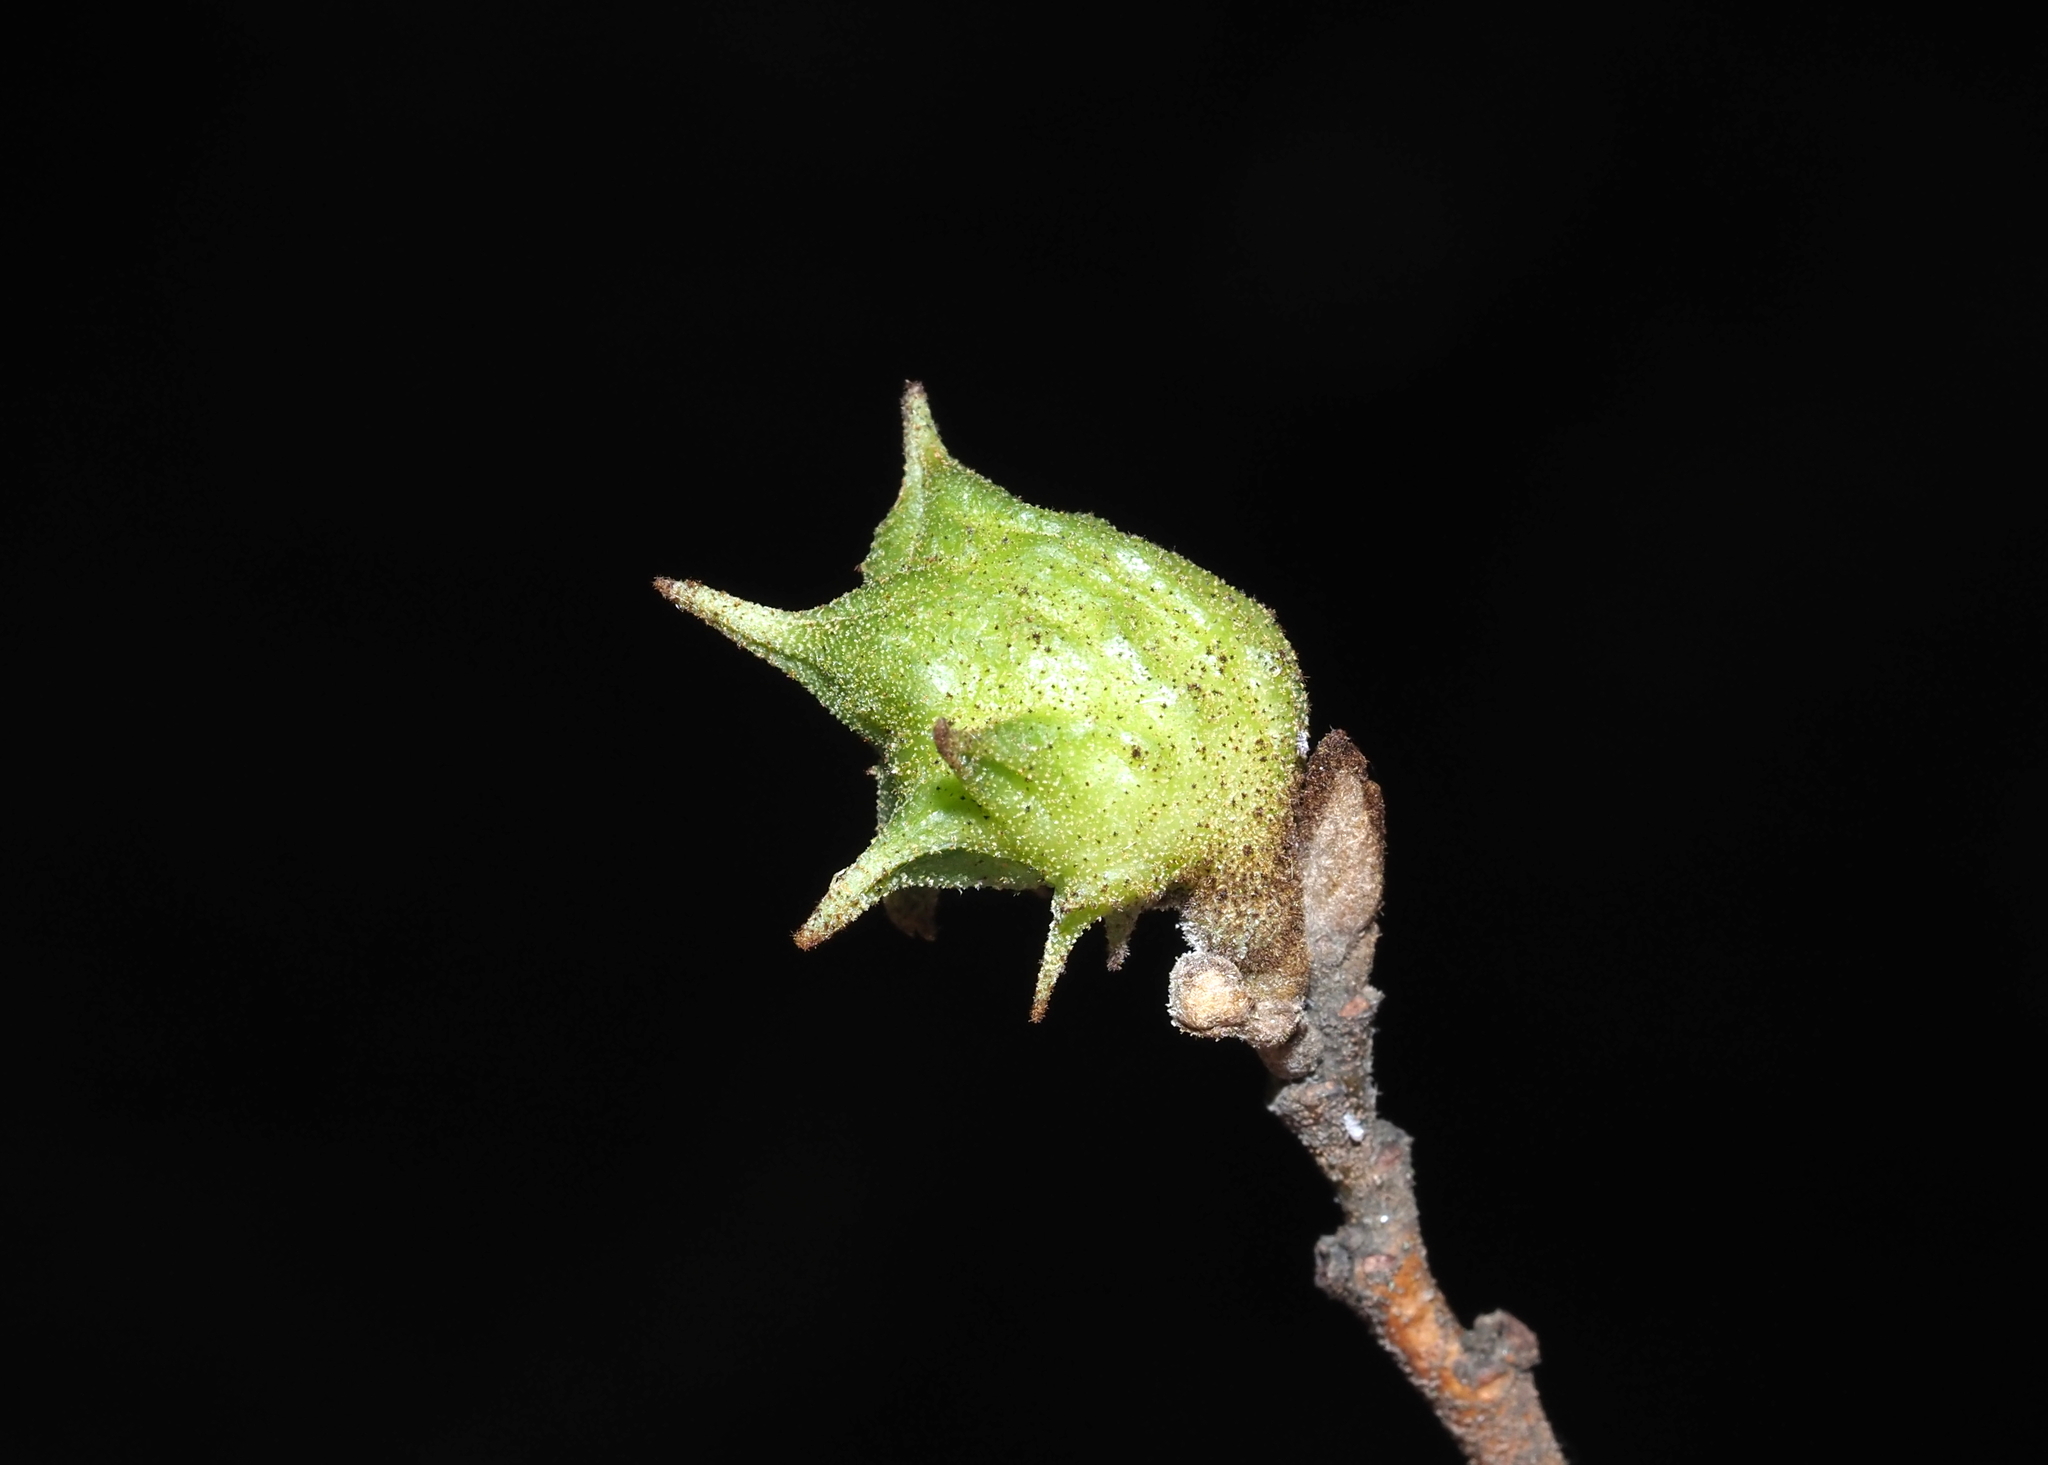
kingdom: Animalia
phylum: Arthropoda
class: Insecta
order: Hemiptera
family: Aphididae
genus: Hamamelistes
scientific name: Hamamelistes spinosus
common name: Witch hazel gall aphid
